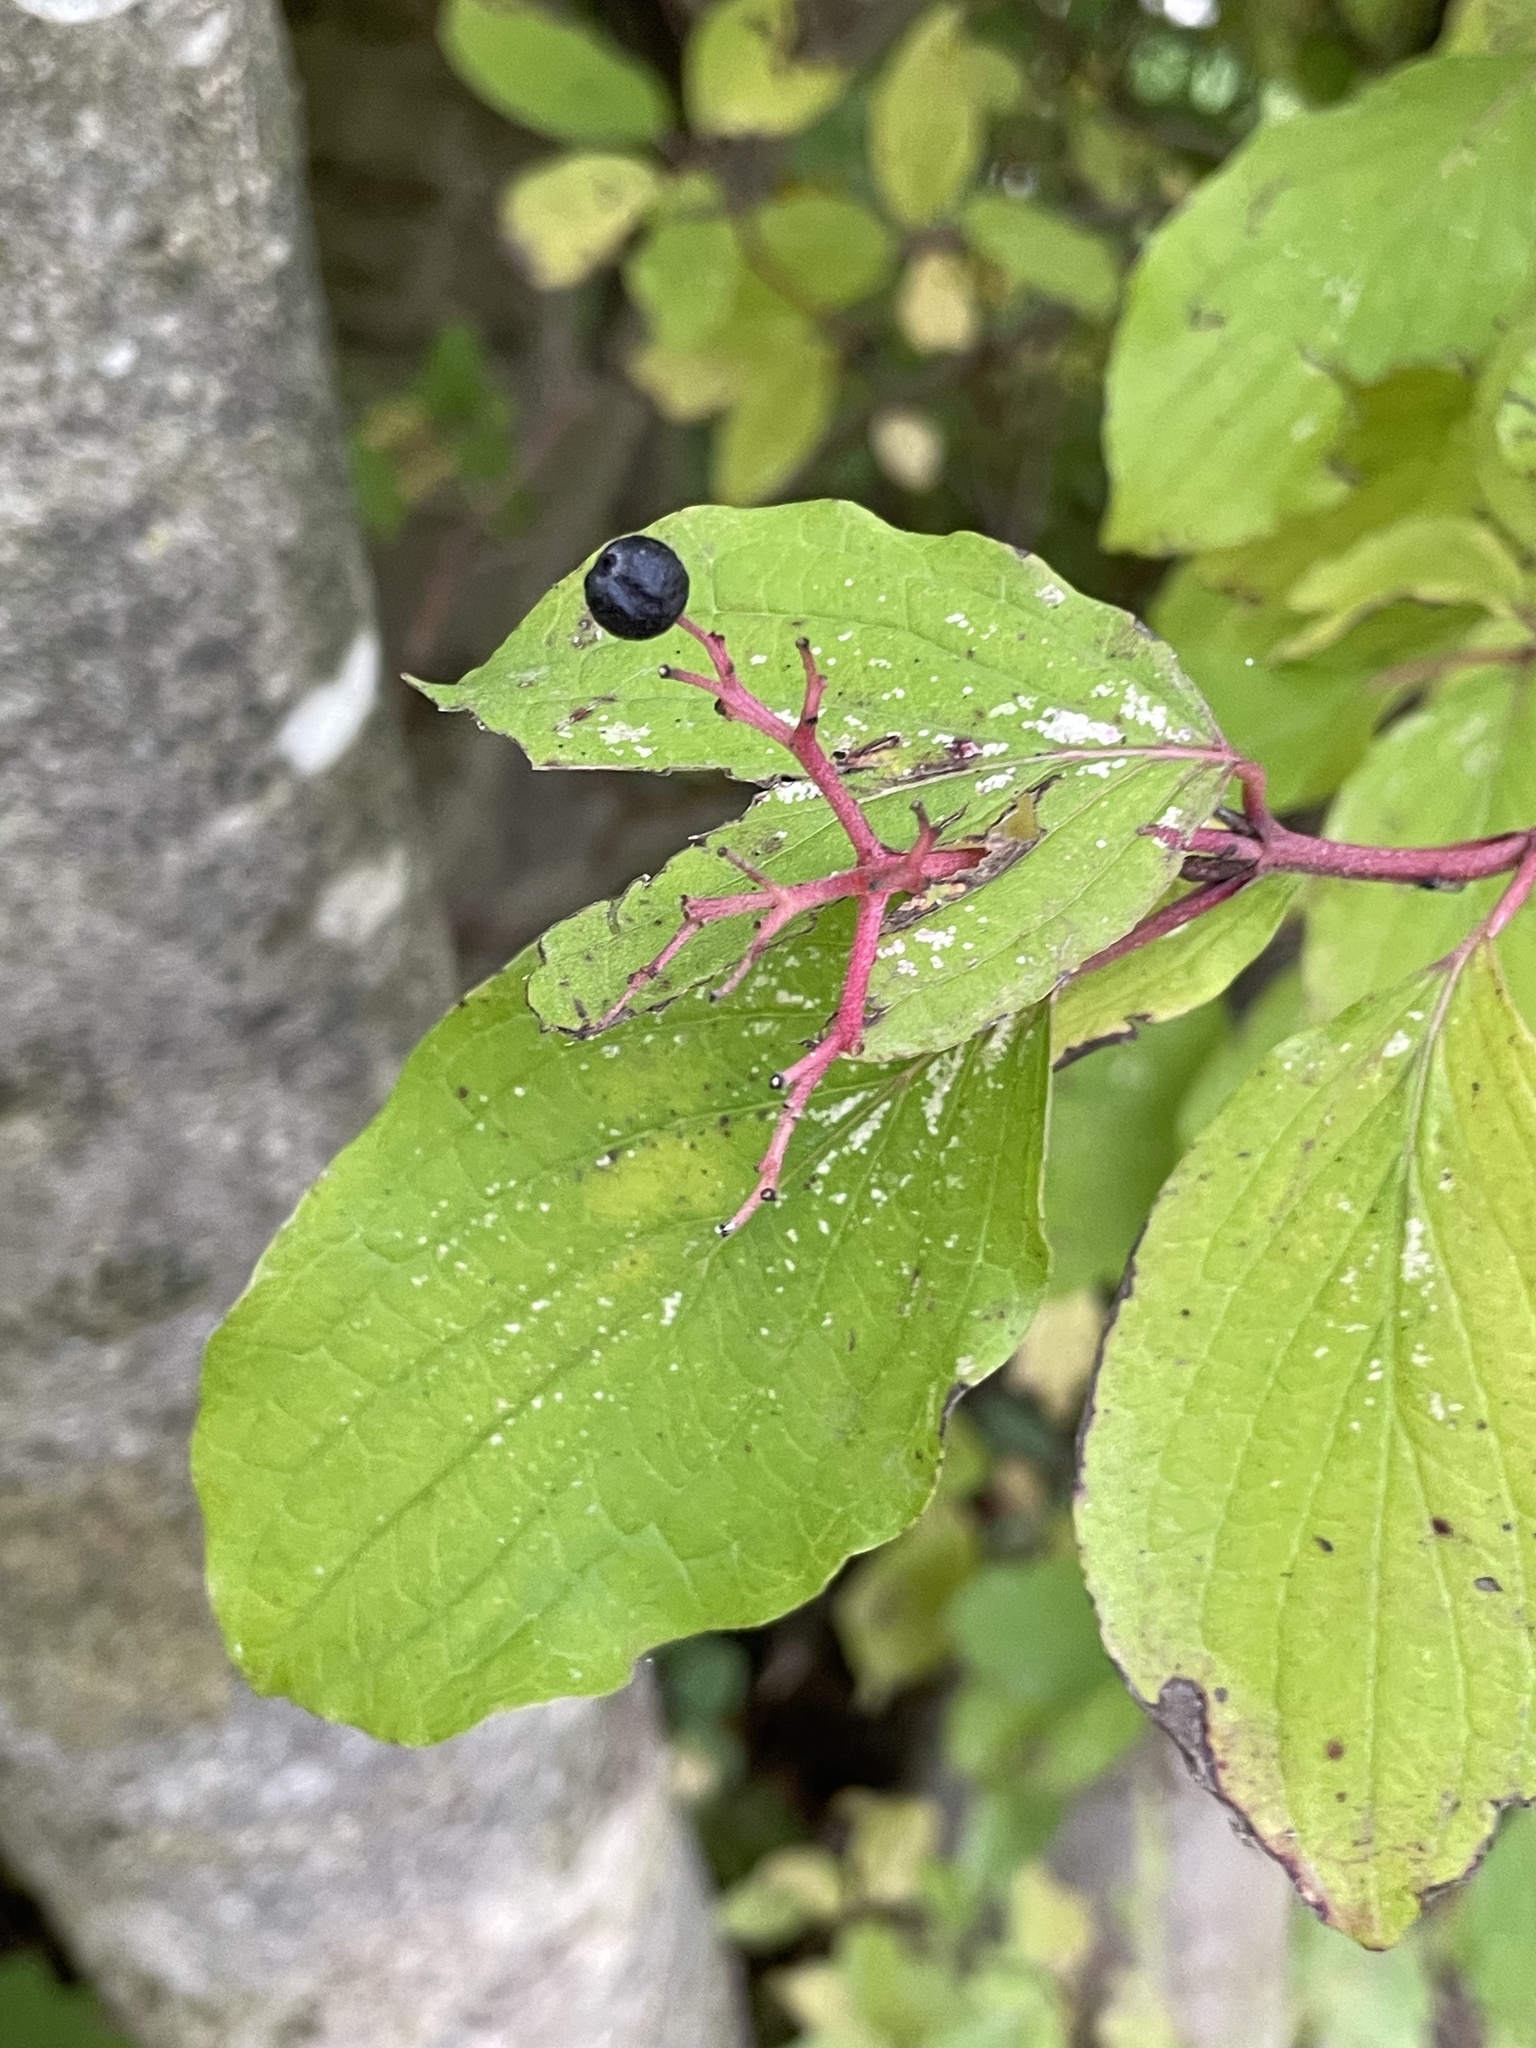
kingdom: Plantae
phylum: Tracheophyta
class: Magnoliopsida
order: Cornales
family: Cornaceae
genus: Cornus
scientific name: Cornus sanguinea
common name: Dogwood
